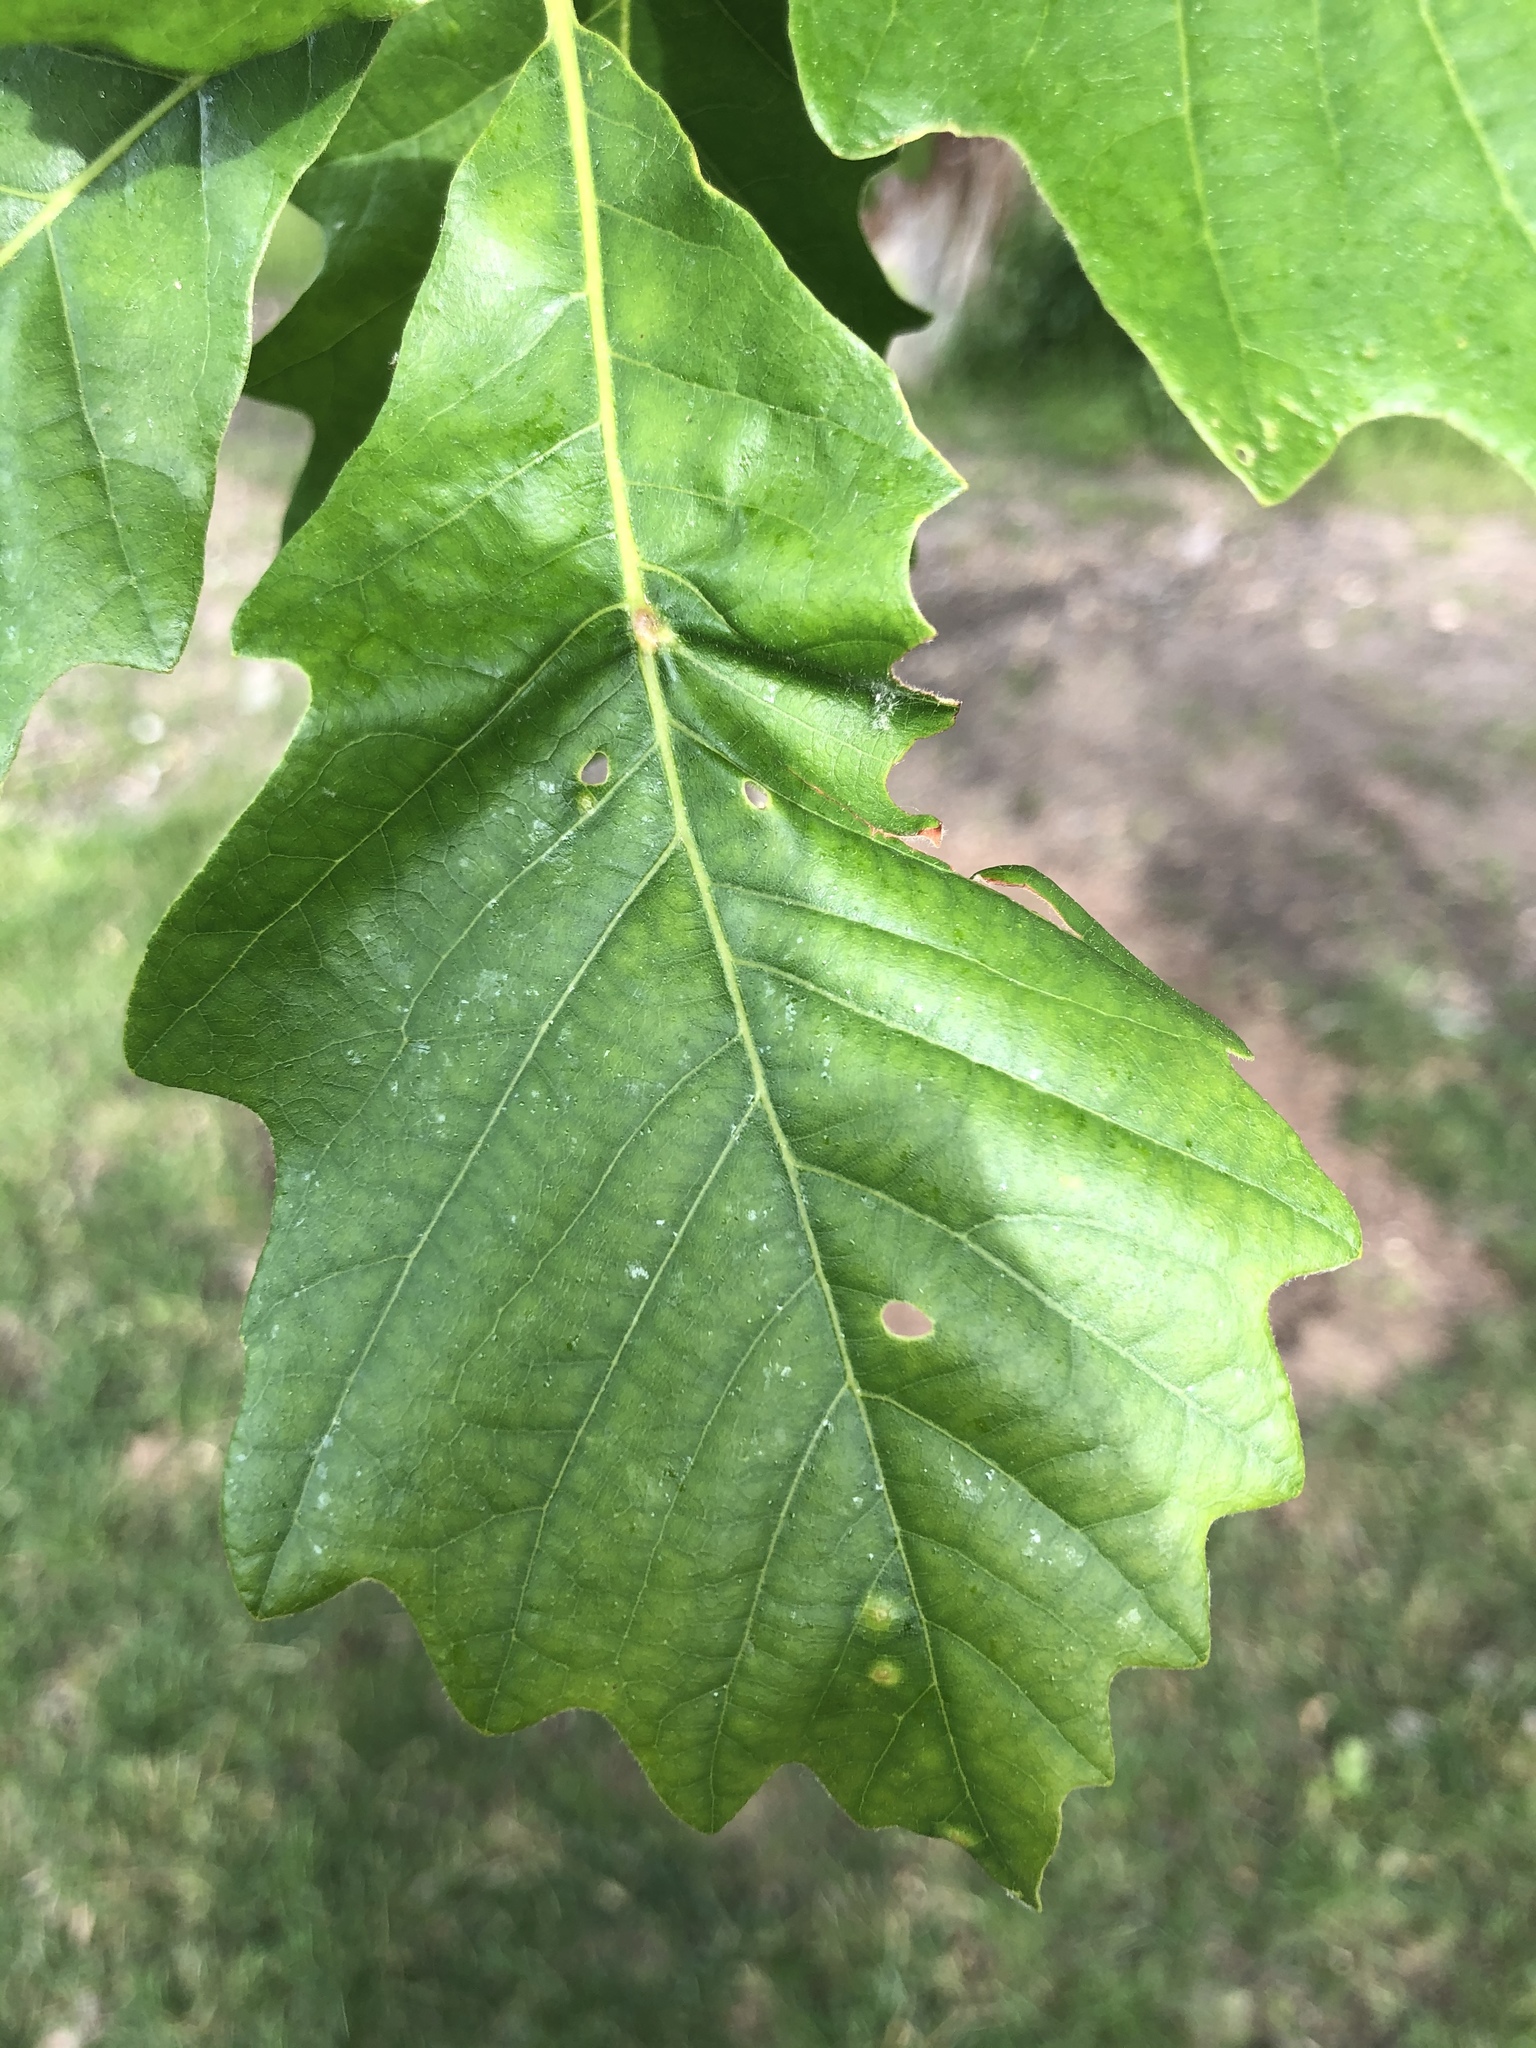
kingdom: Animalia
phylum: Arthropoda
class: Insecta
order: Hymenoptera
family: Cynipidae
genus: Neuroterus
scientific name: Neuroterus
